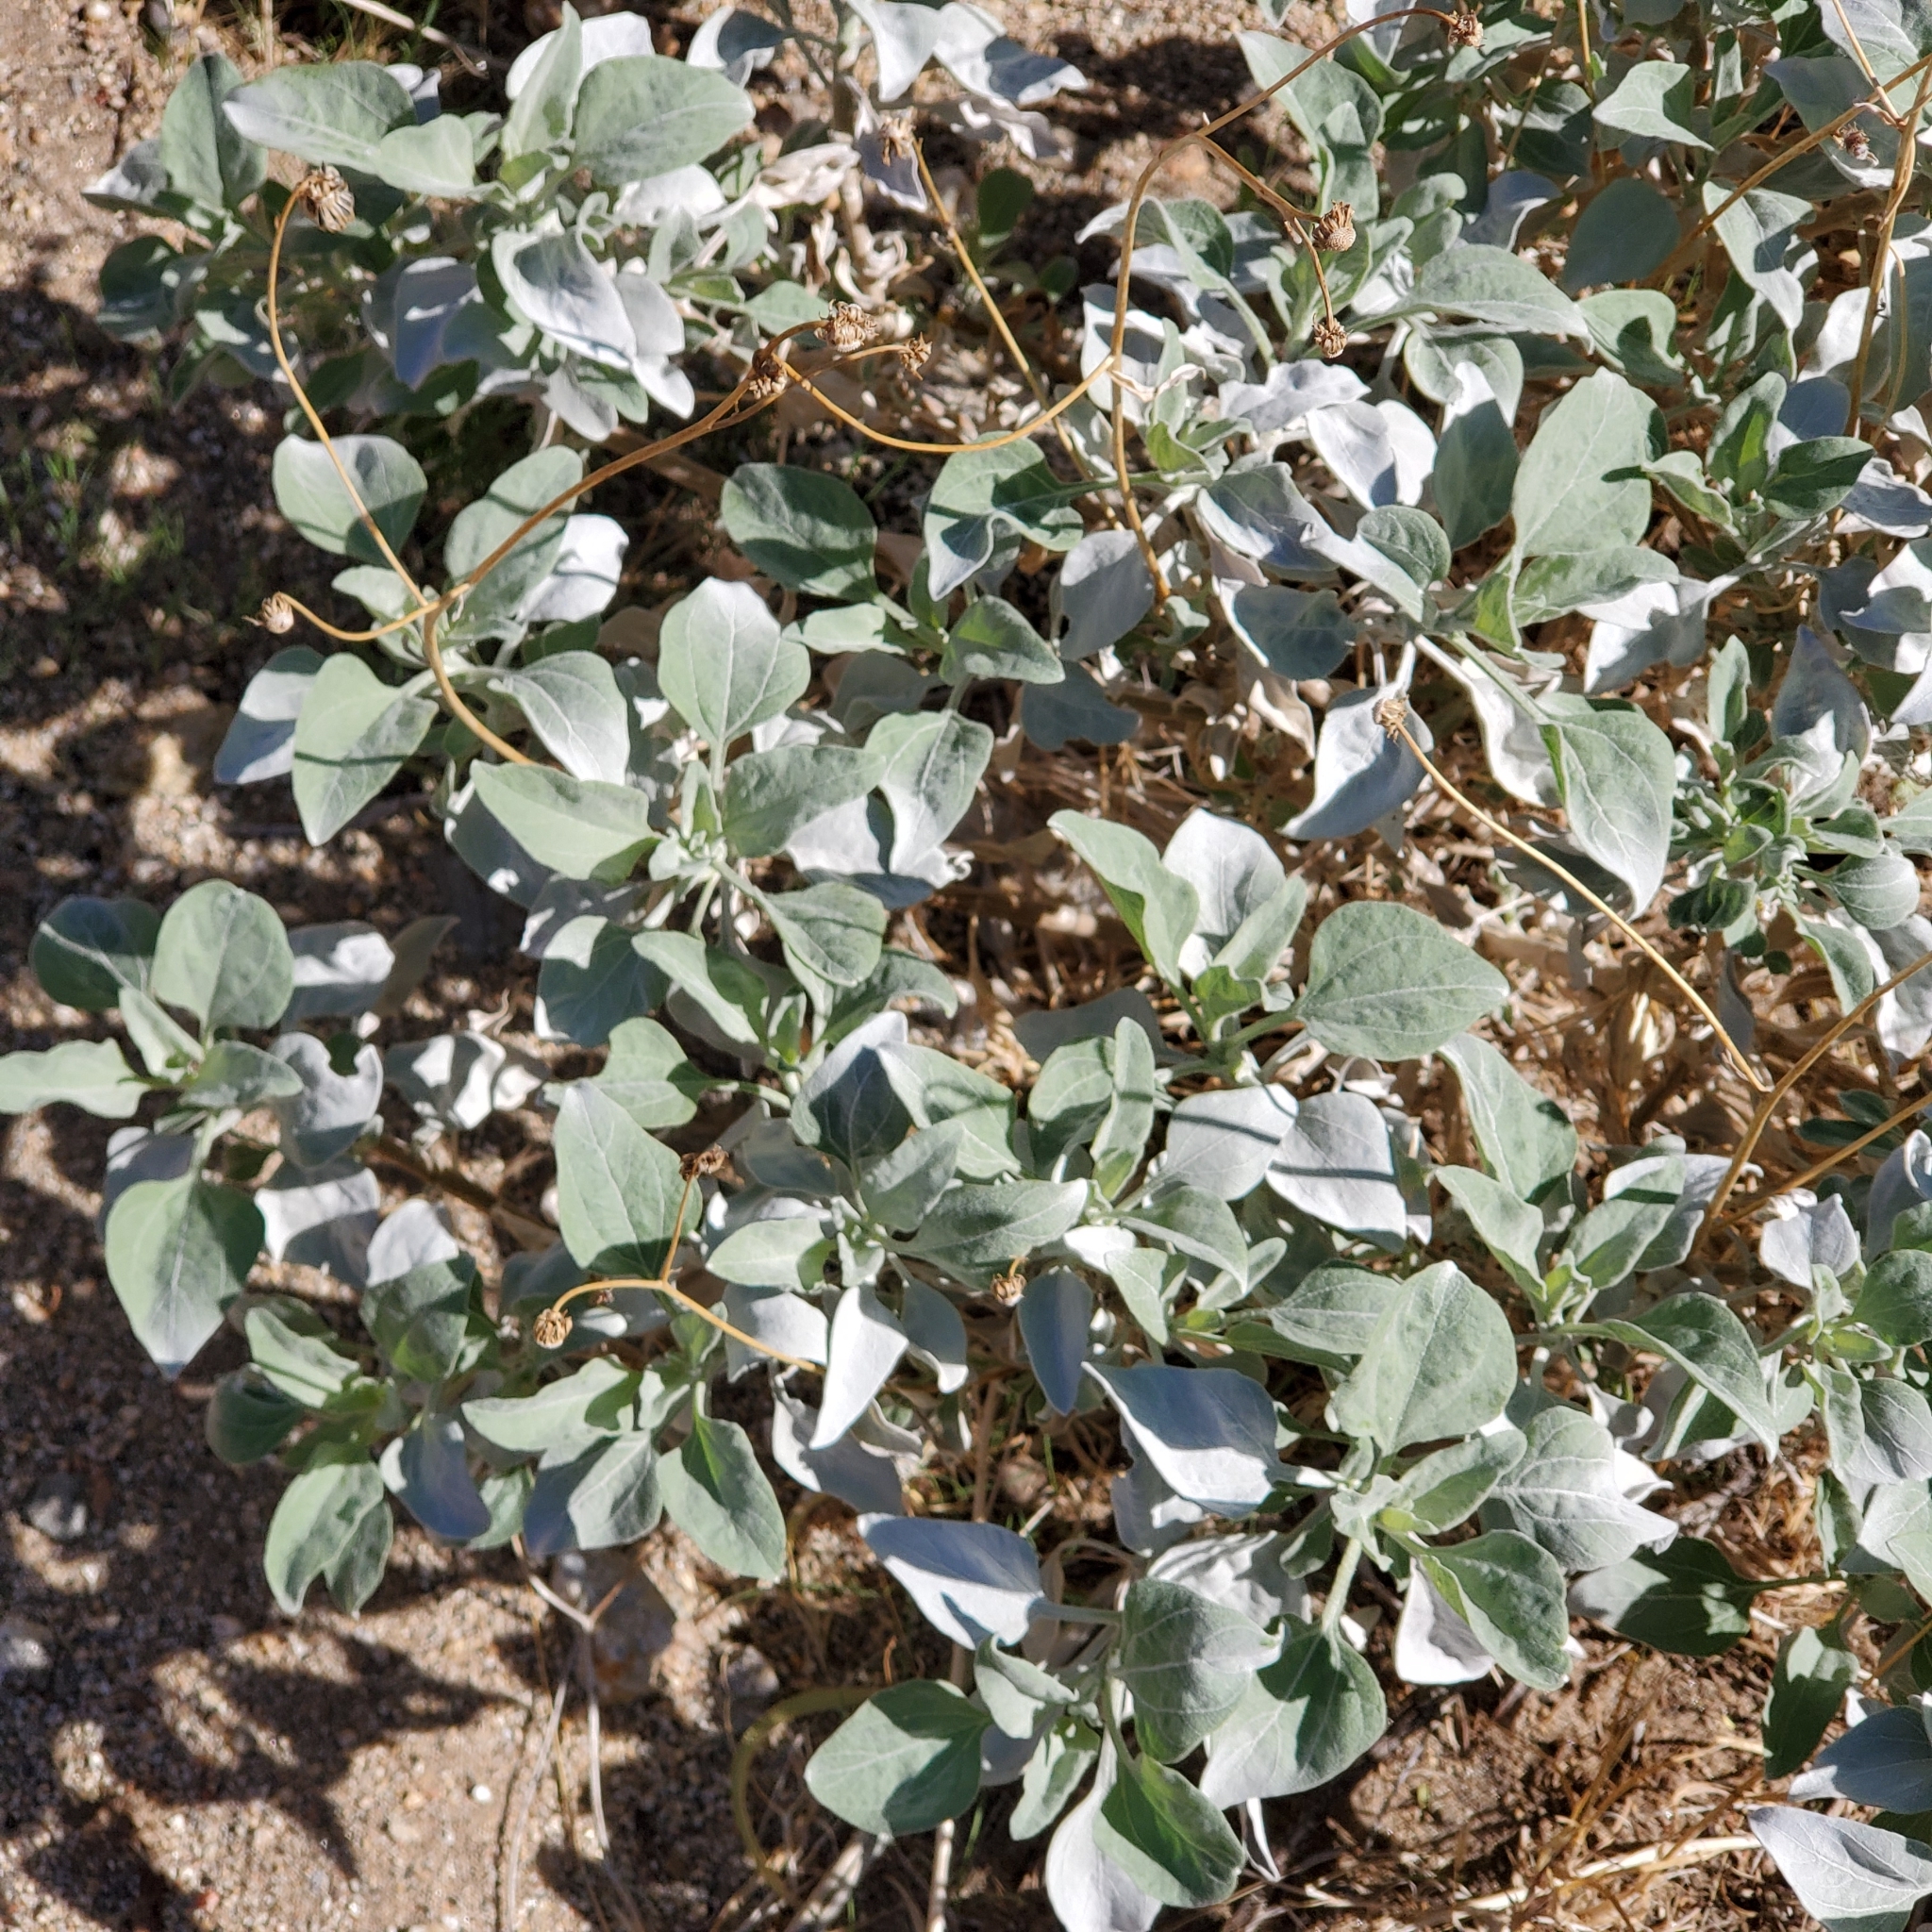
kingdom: Plantae
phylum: Tracheophyta
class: Magnoliopsida
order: Asterales
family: Asteraceae
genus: Encelia
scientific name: Encelia farinosa
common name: Brittlebush
